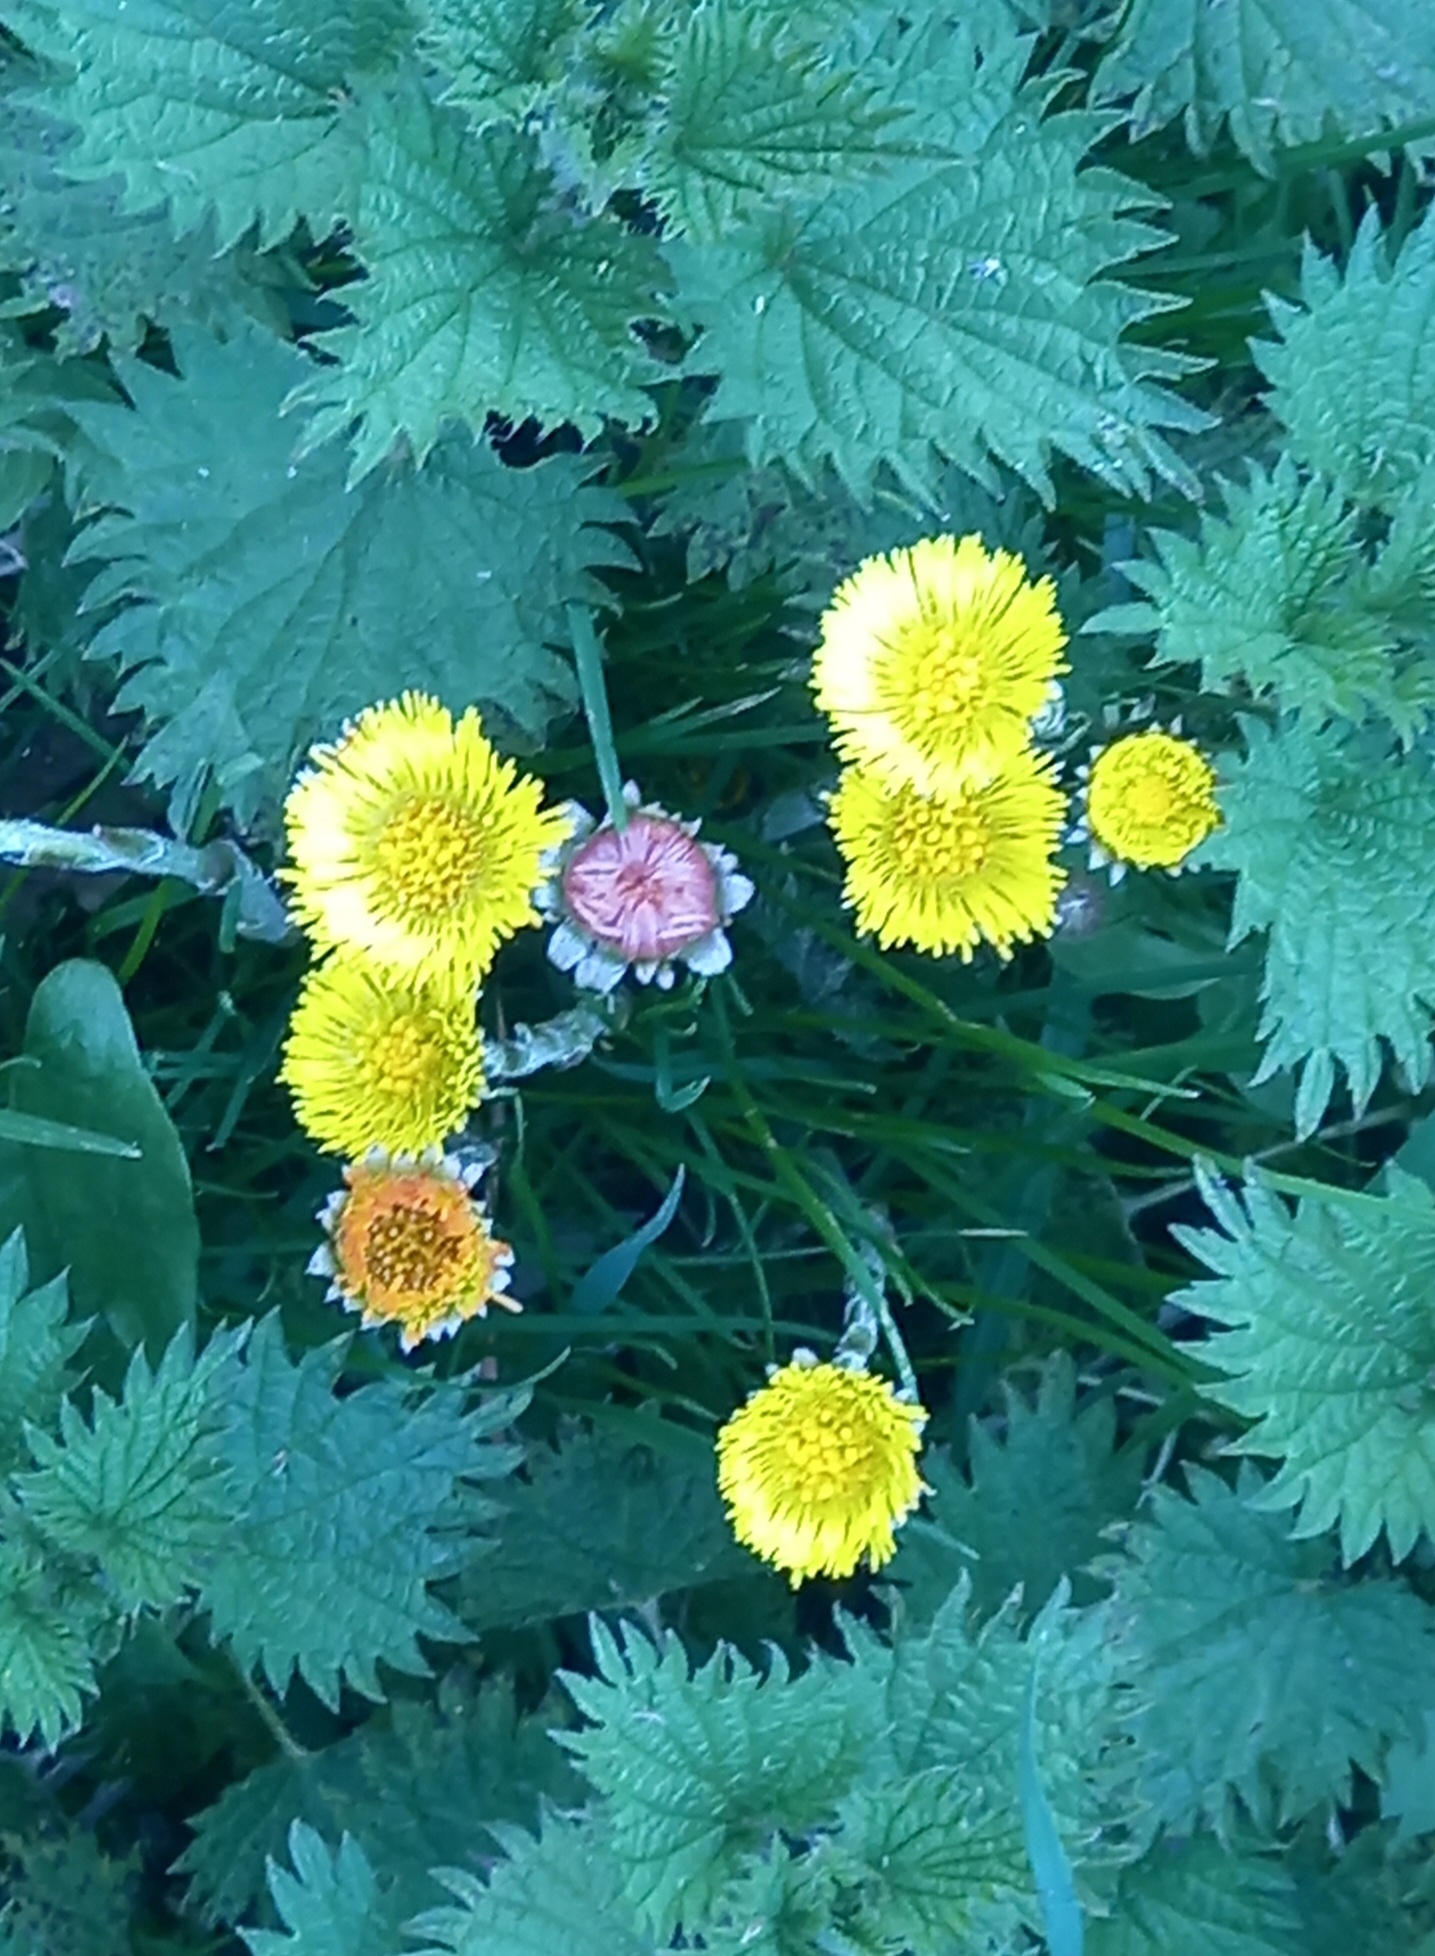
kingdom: Plantae
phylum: Tracheophyta
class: Magnoliopsida
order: Asterales
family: Asteraceae
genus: Tussilago
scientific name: Tussilago farfara
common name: Coltsfoot
